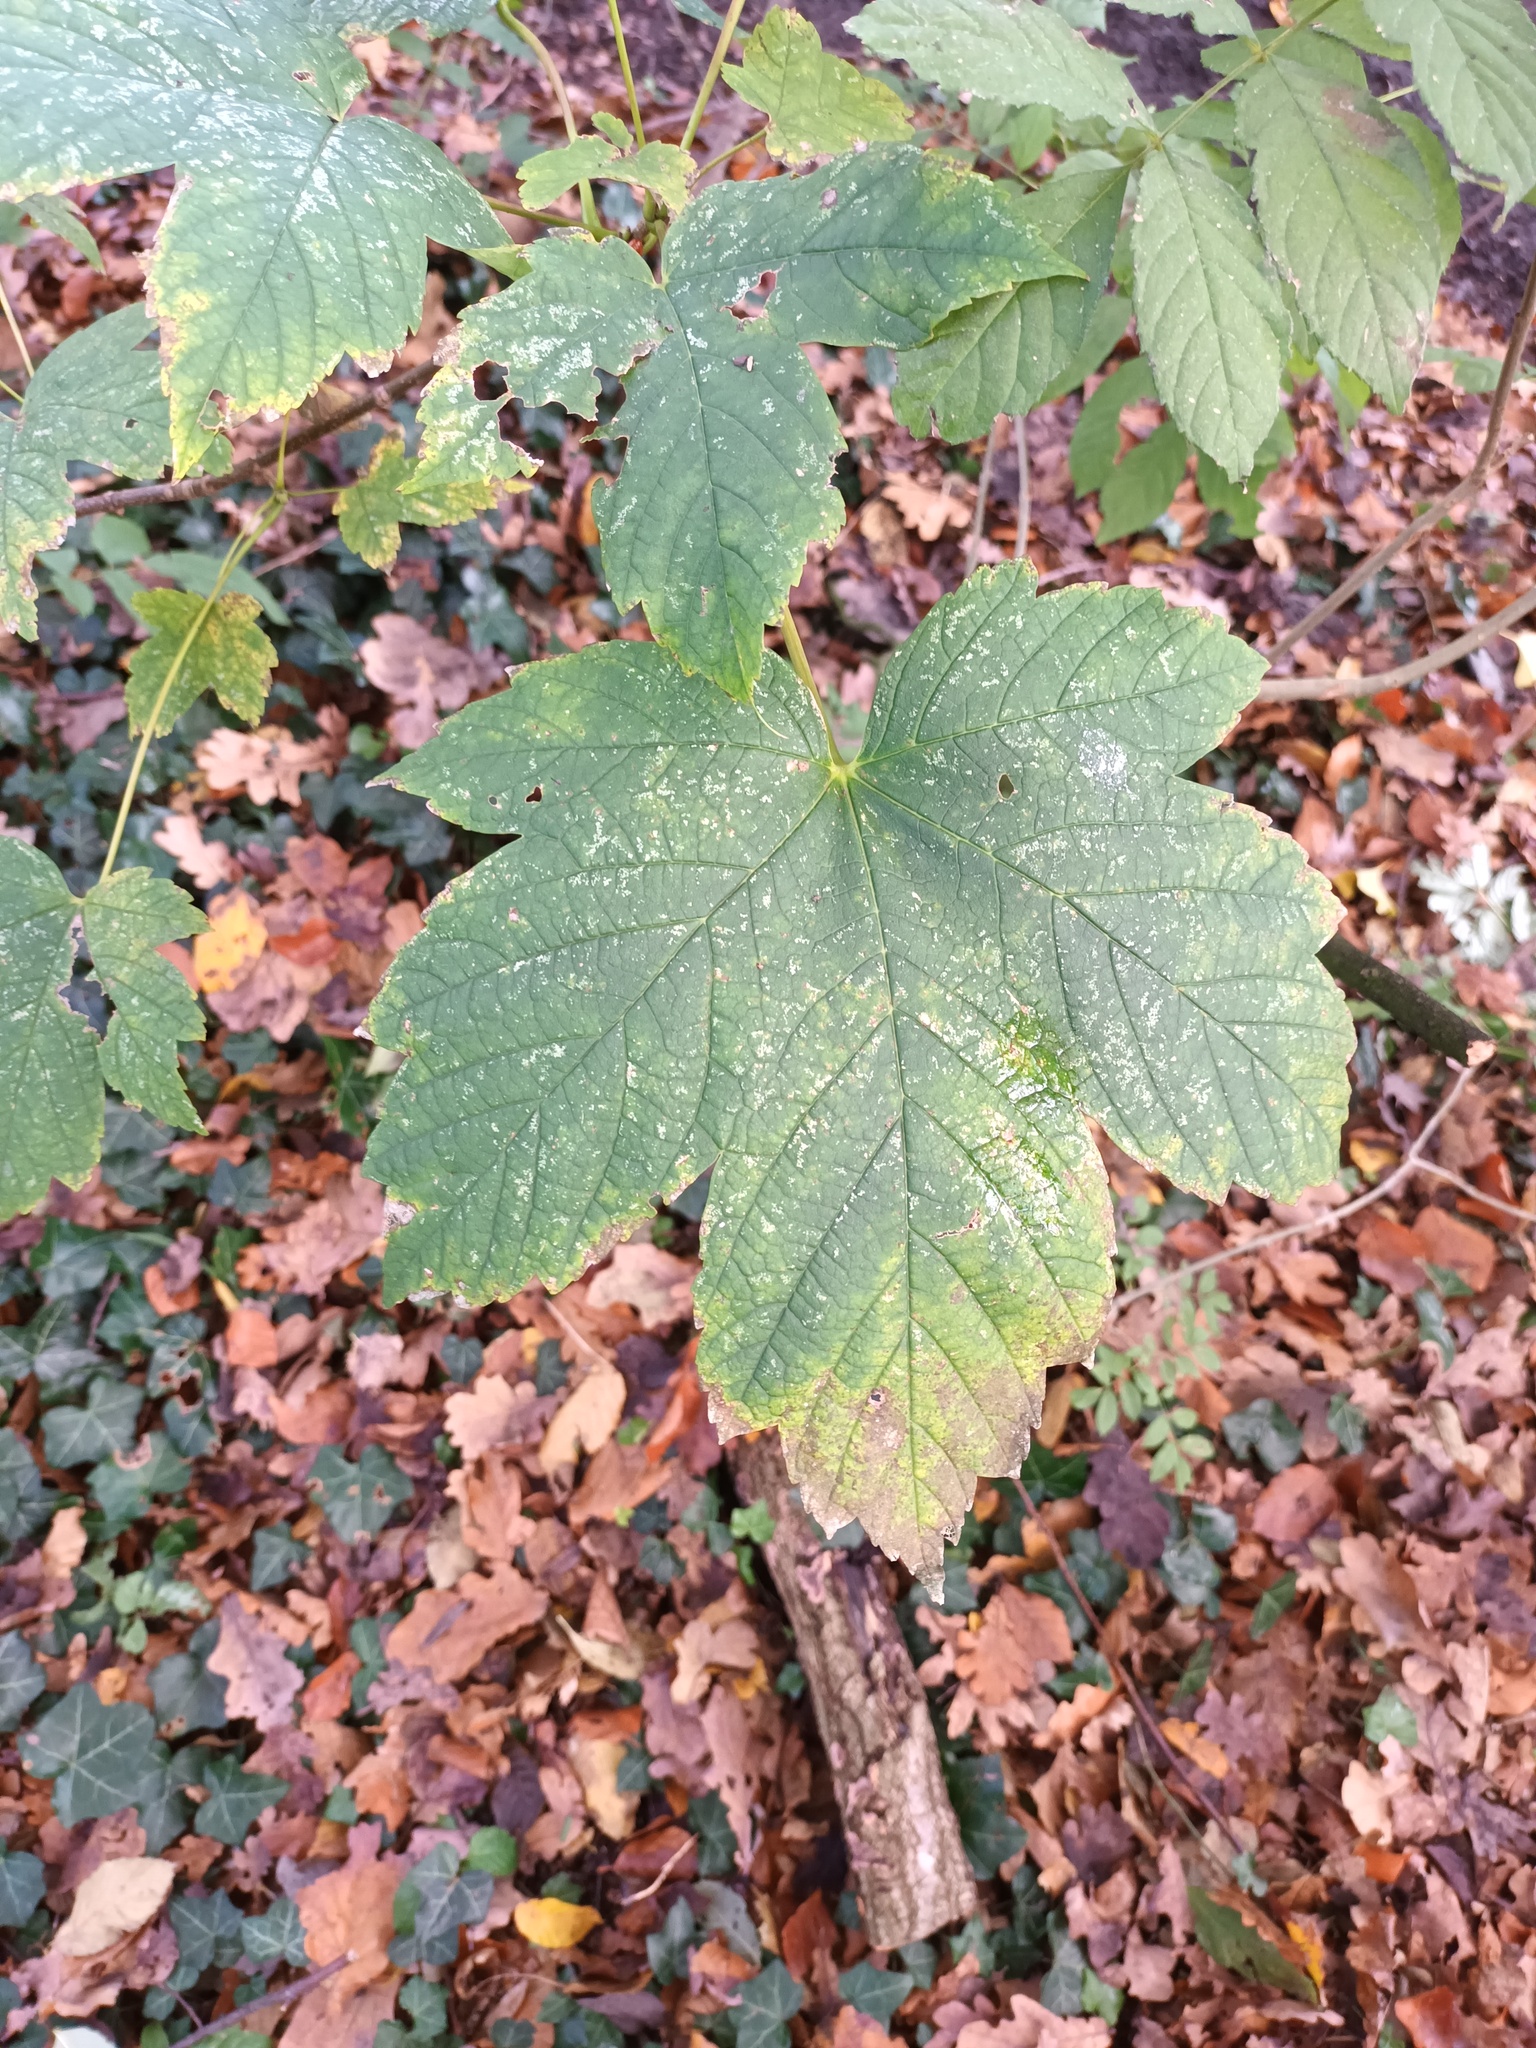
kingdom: Plantae
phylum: Tracheophyta
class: Magnoliopsida
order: Sapindales
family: Sapindaceae
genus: Acer
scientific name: Acer pseudoplatanus
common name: Sycamore
